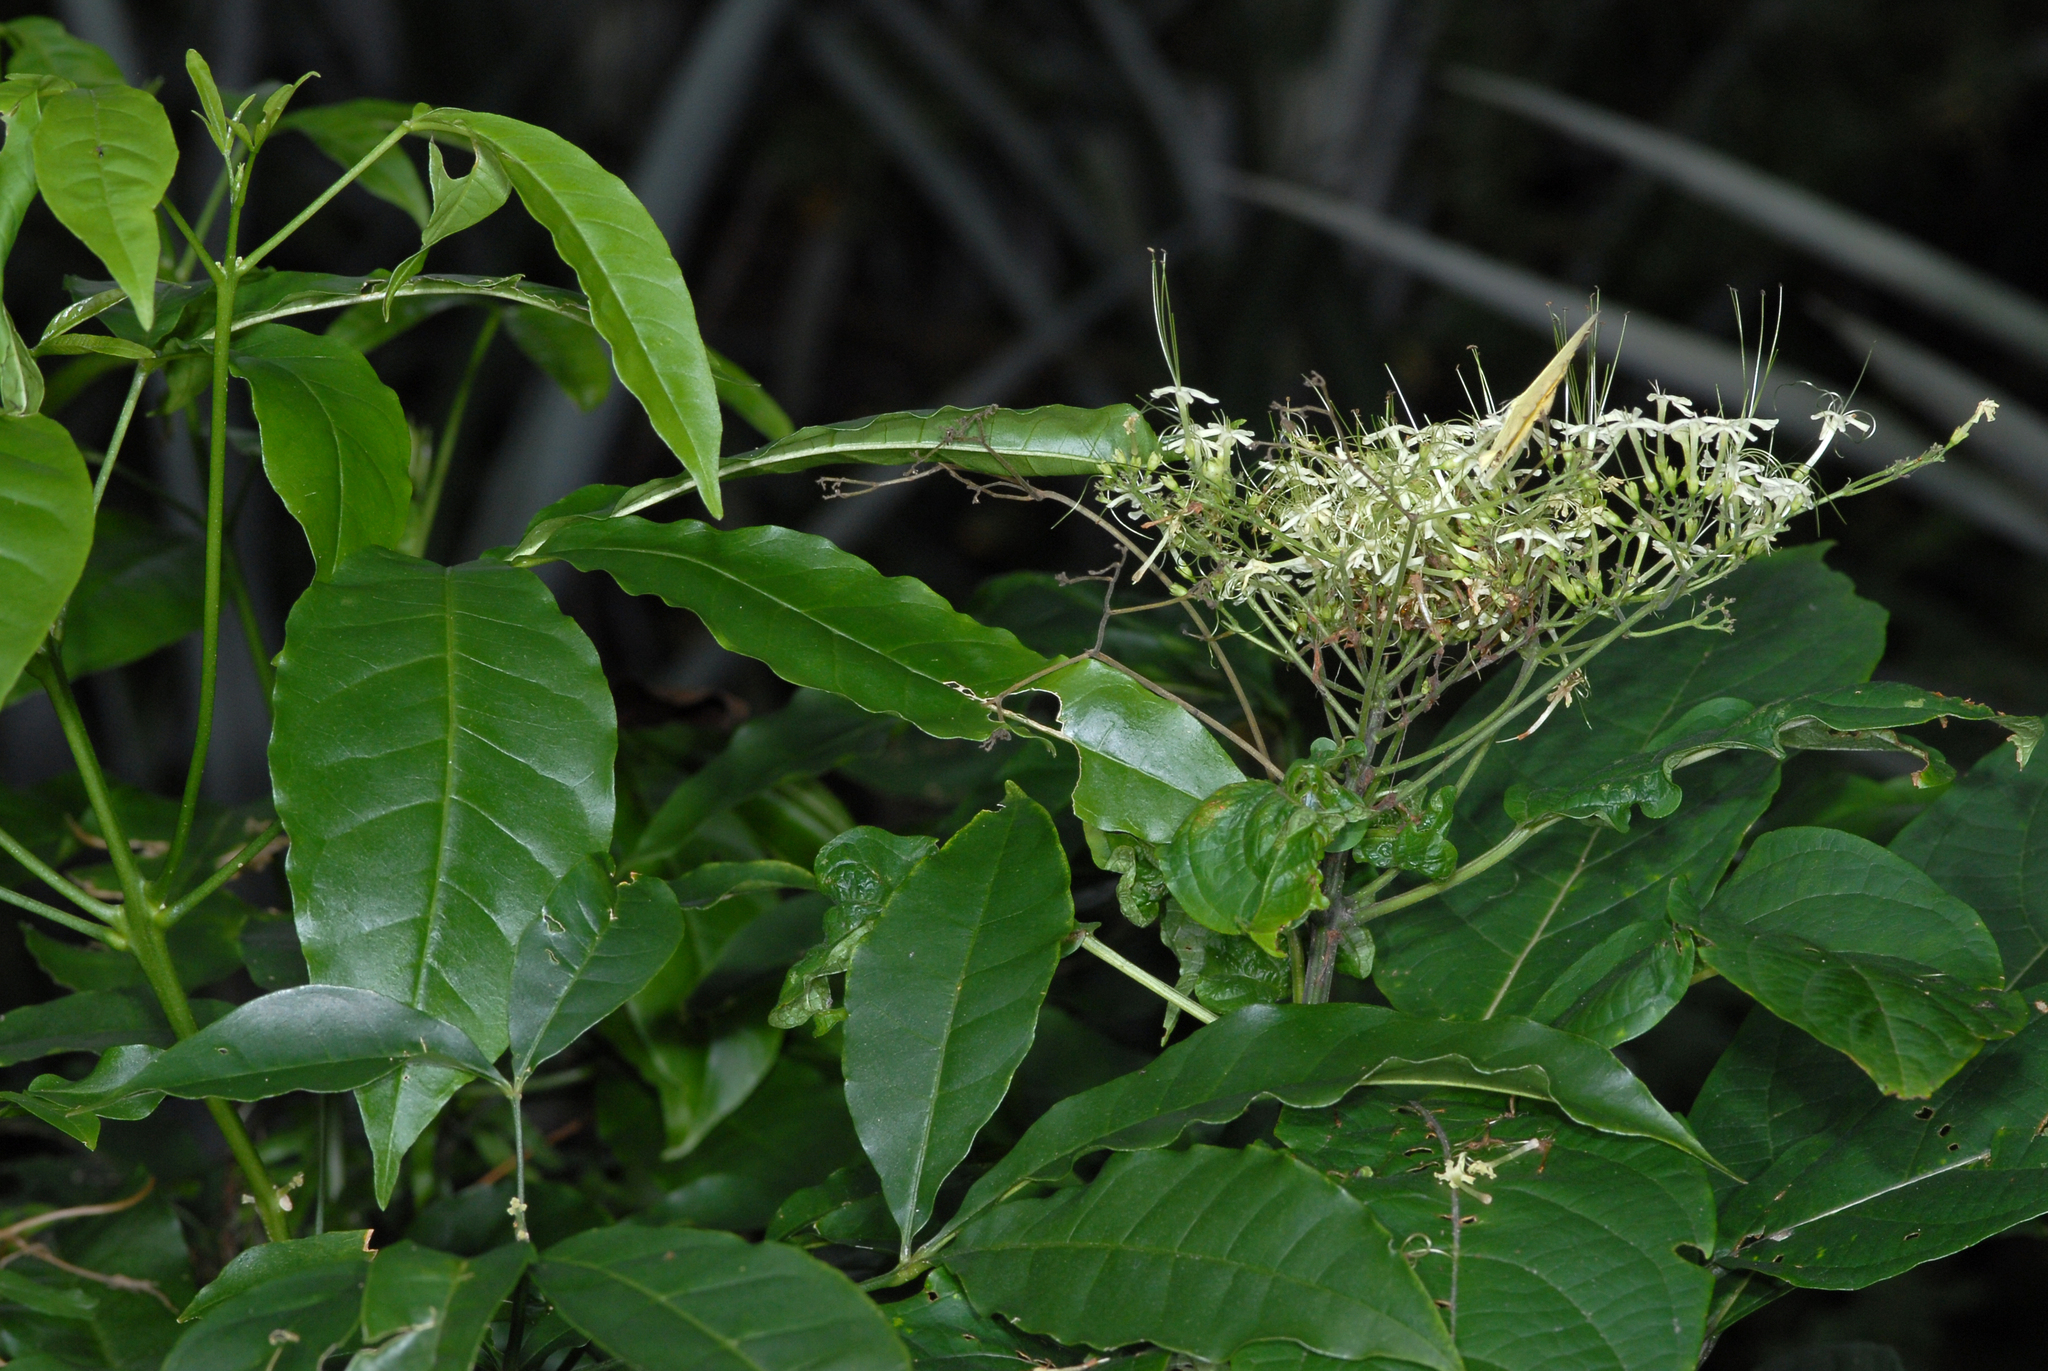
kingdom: Plantae
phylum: Tracheophyta
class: Magnoliopsida
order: Lamiales
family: Lamiaceae
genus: Clerodendrum
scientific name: Clerodendrum cyrtophyllum
